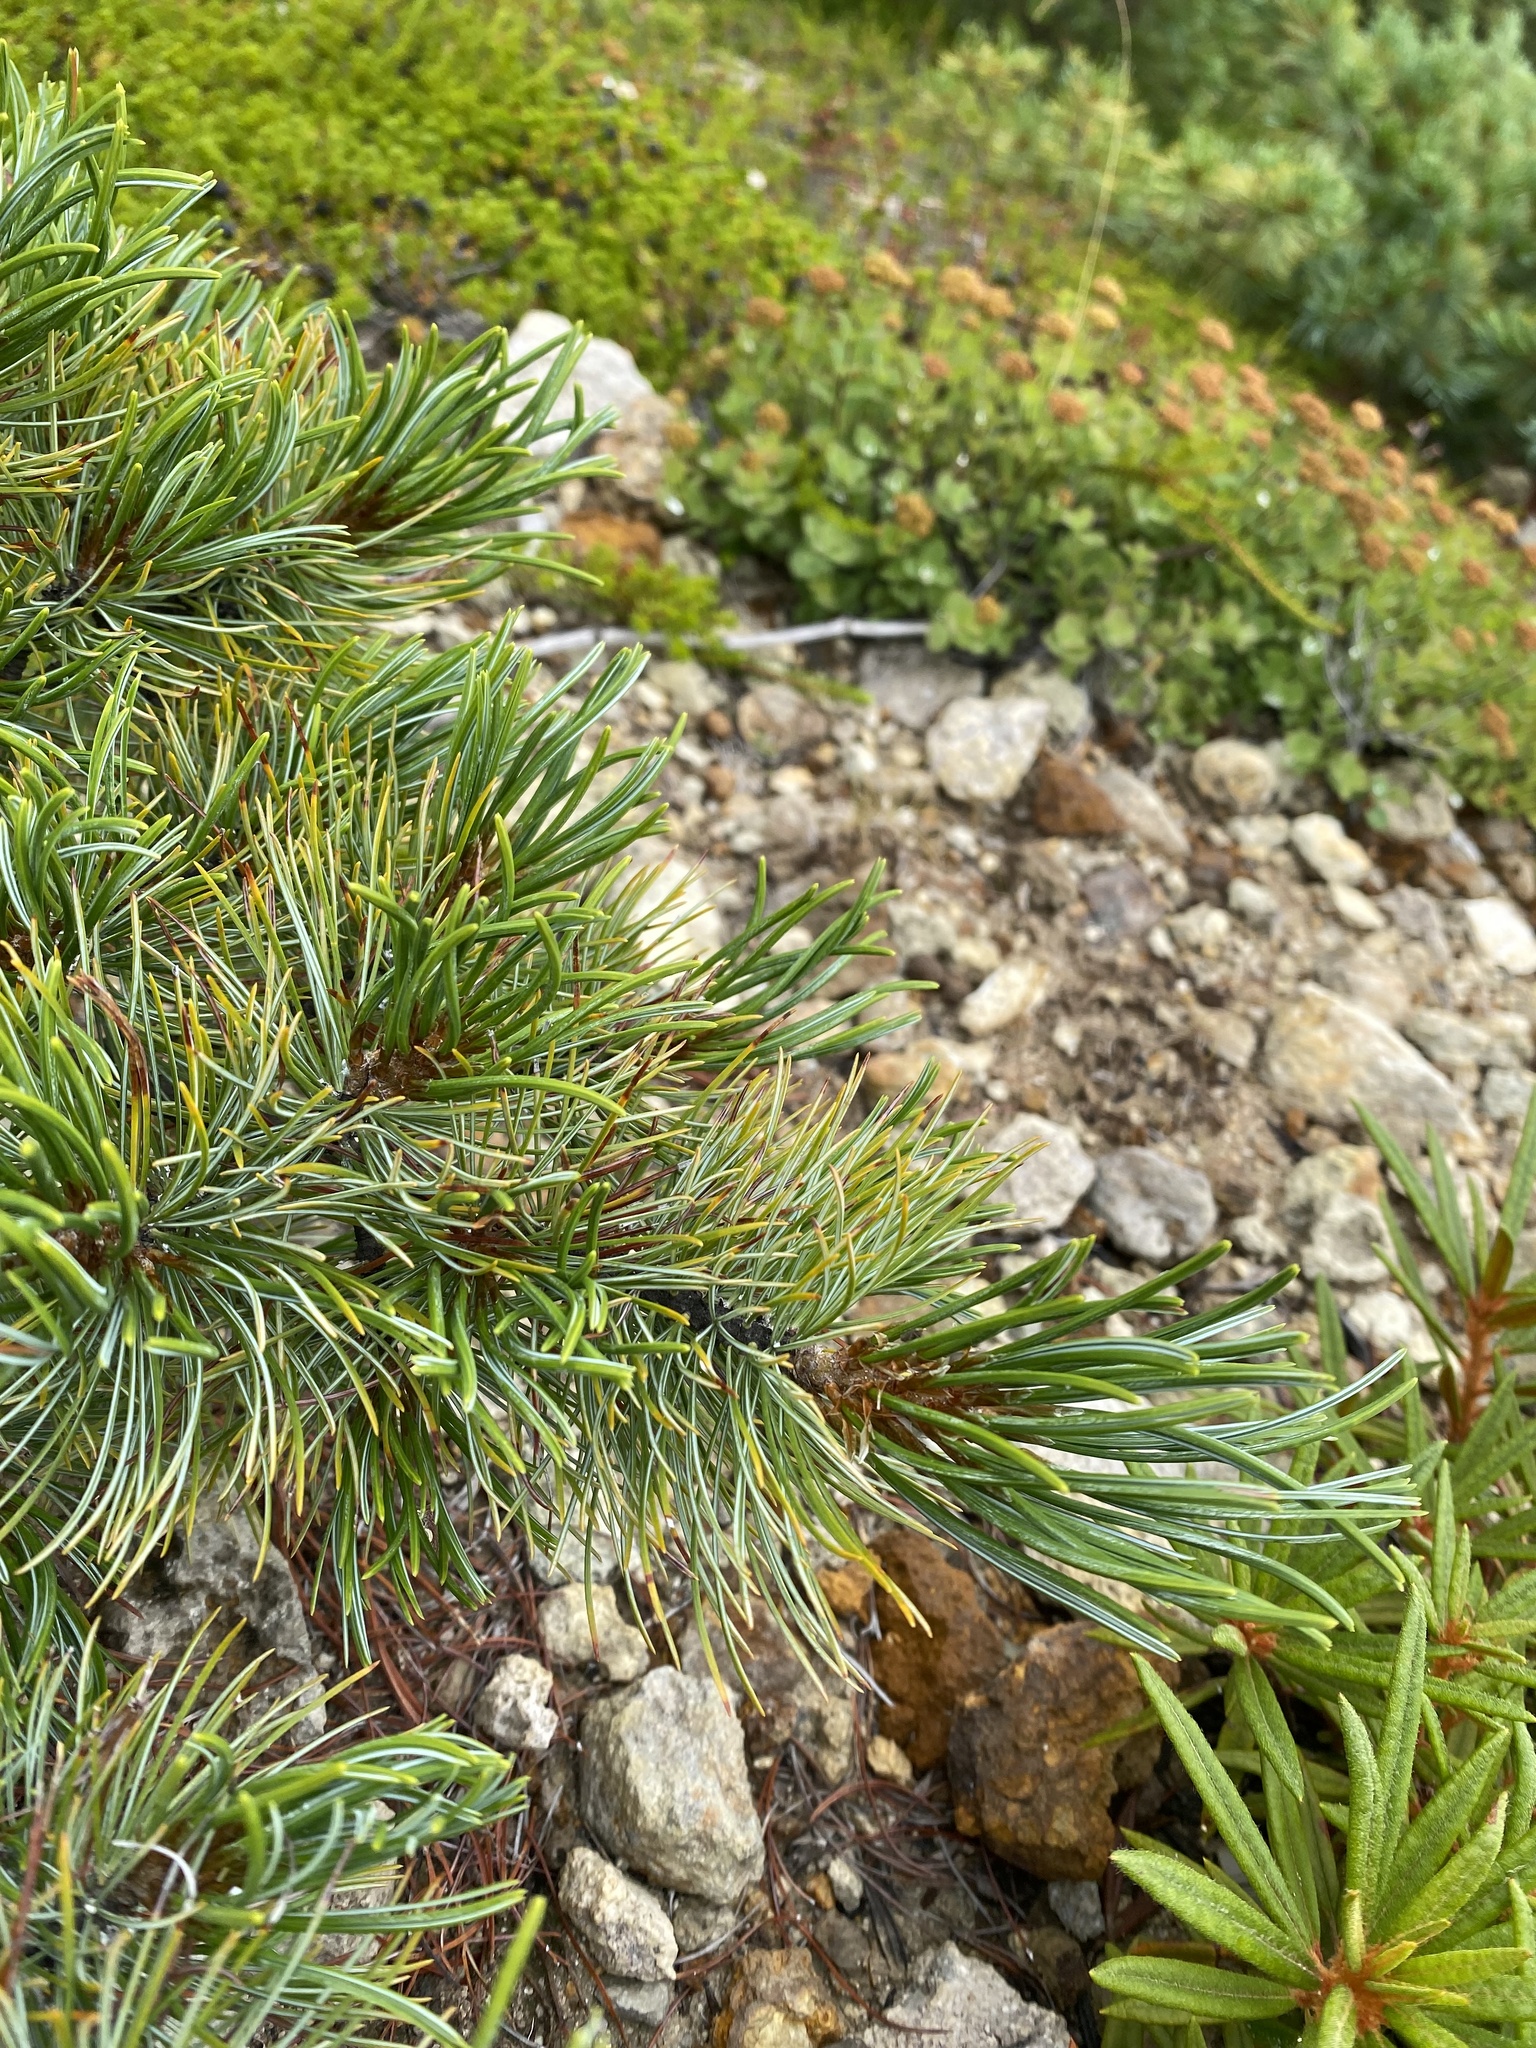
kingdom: Plantae
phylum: Tracheophyta
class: Pinopsida
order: Pinales
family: Pinaceae
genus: Pinus
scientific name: Pinus pumila
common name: Dwarf siberian pine
